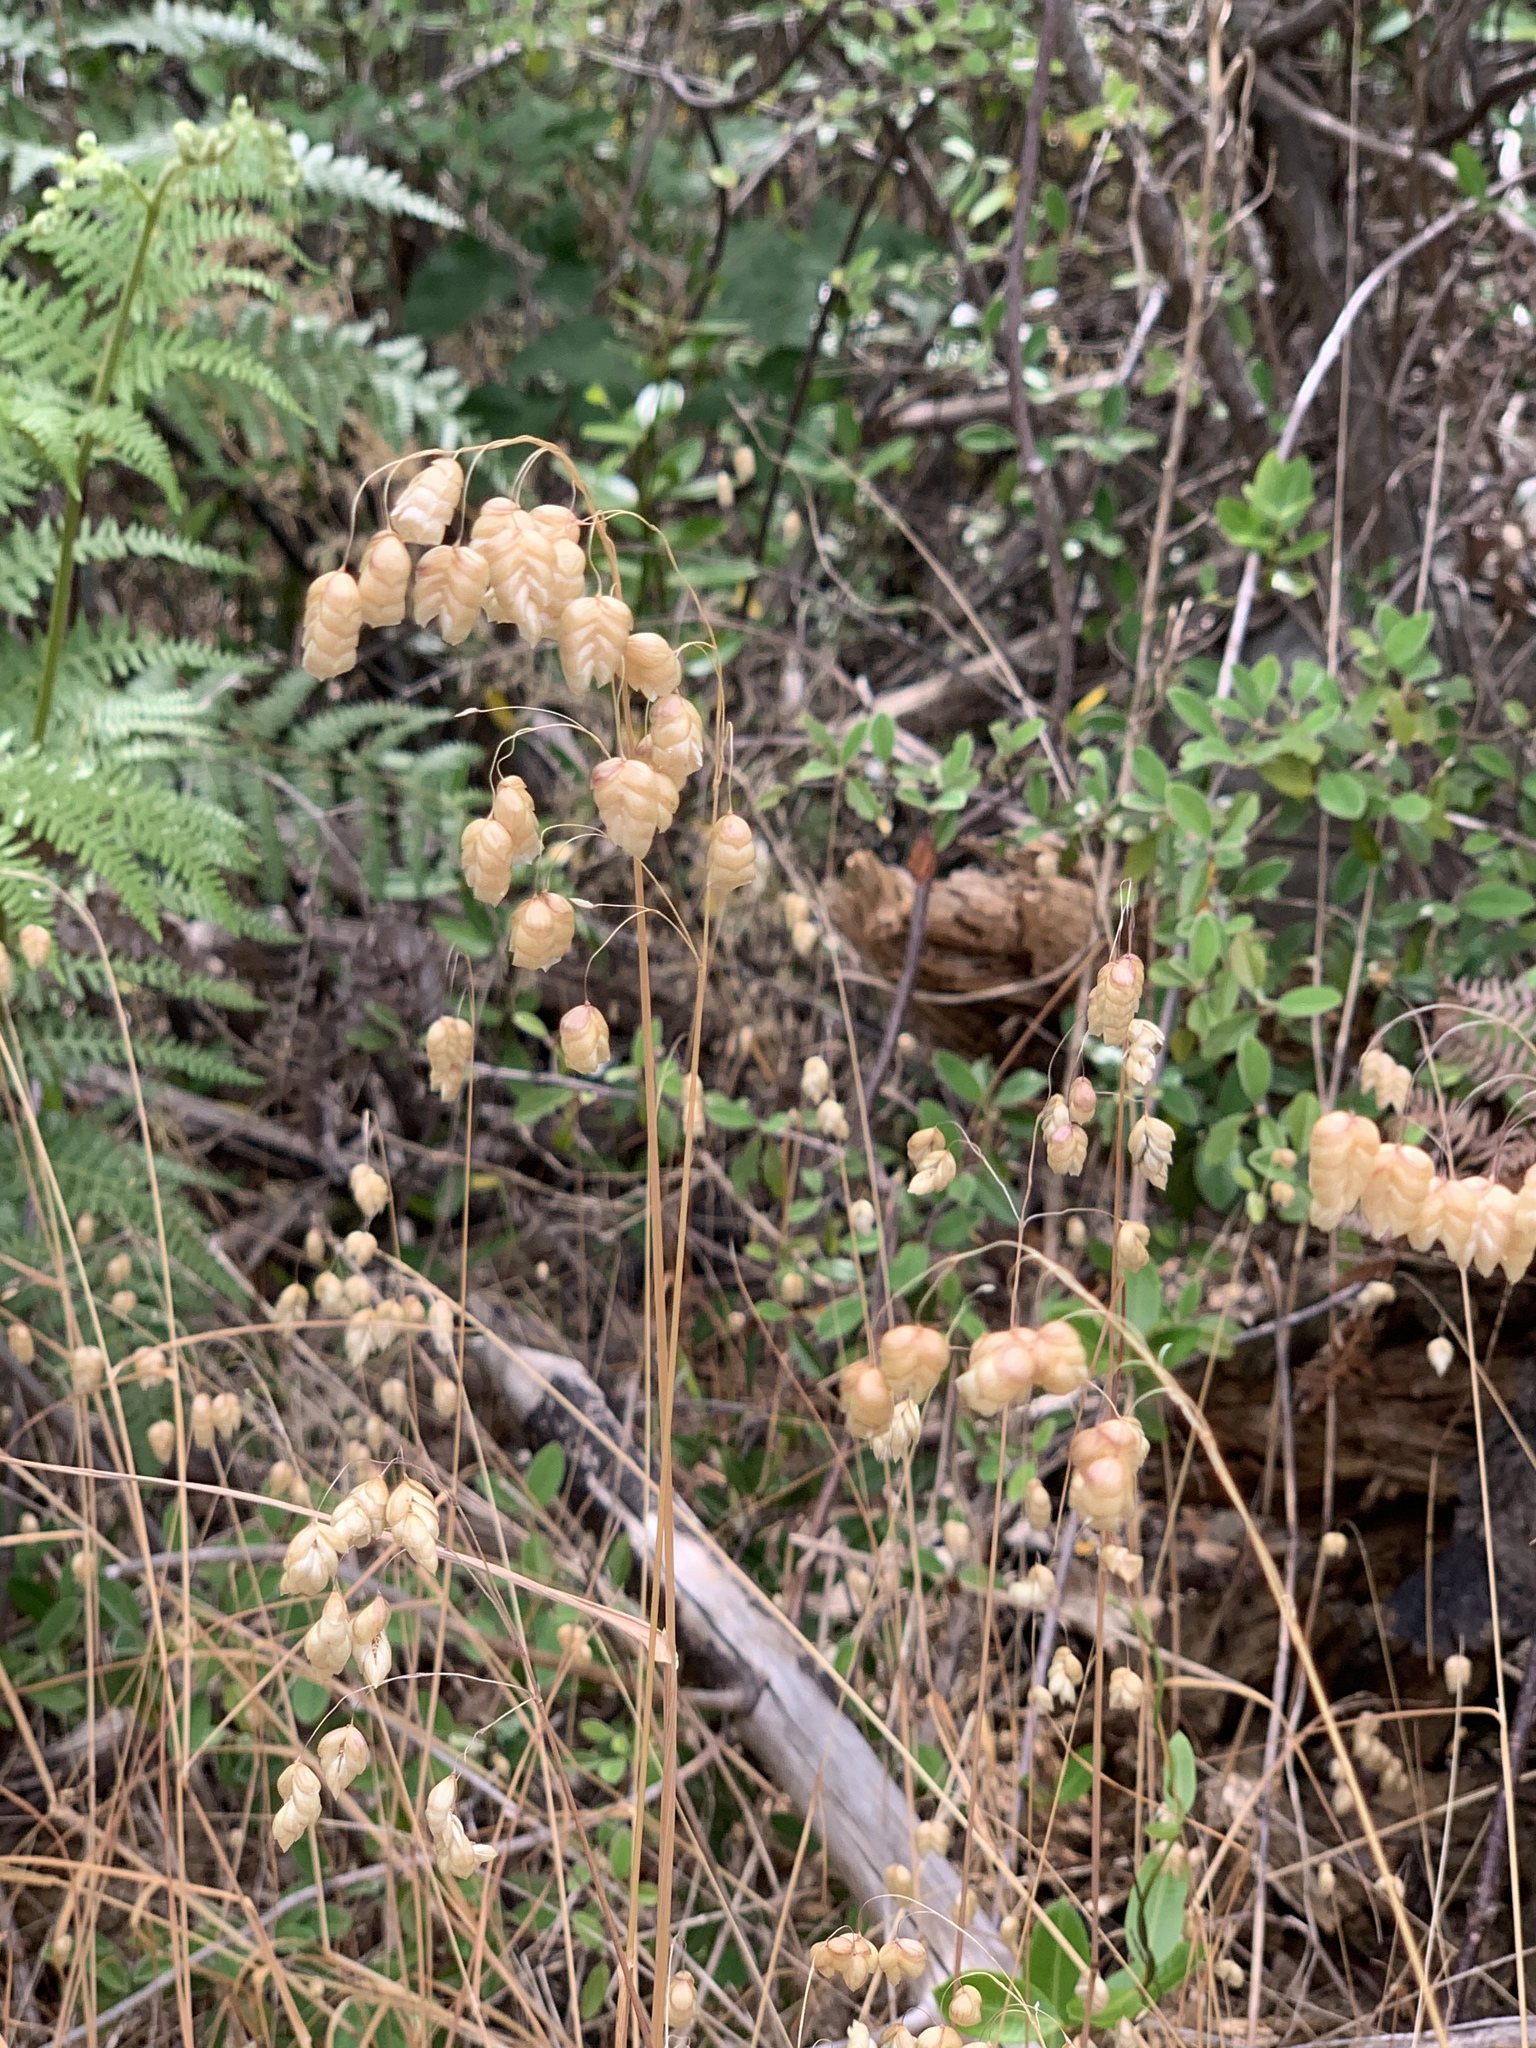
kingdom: Plantae
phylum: Tracheophyta
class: Liliopsida
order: Poales
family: Poaceae
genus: Briza
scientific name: Briza maxima
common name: Big quakinggrass
